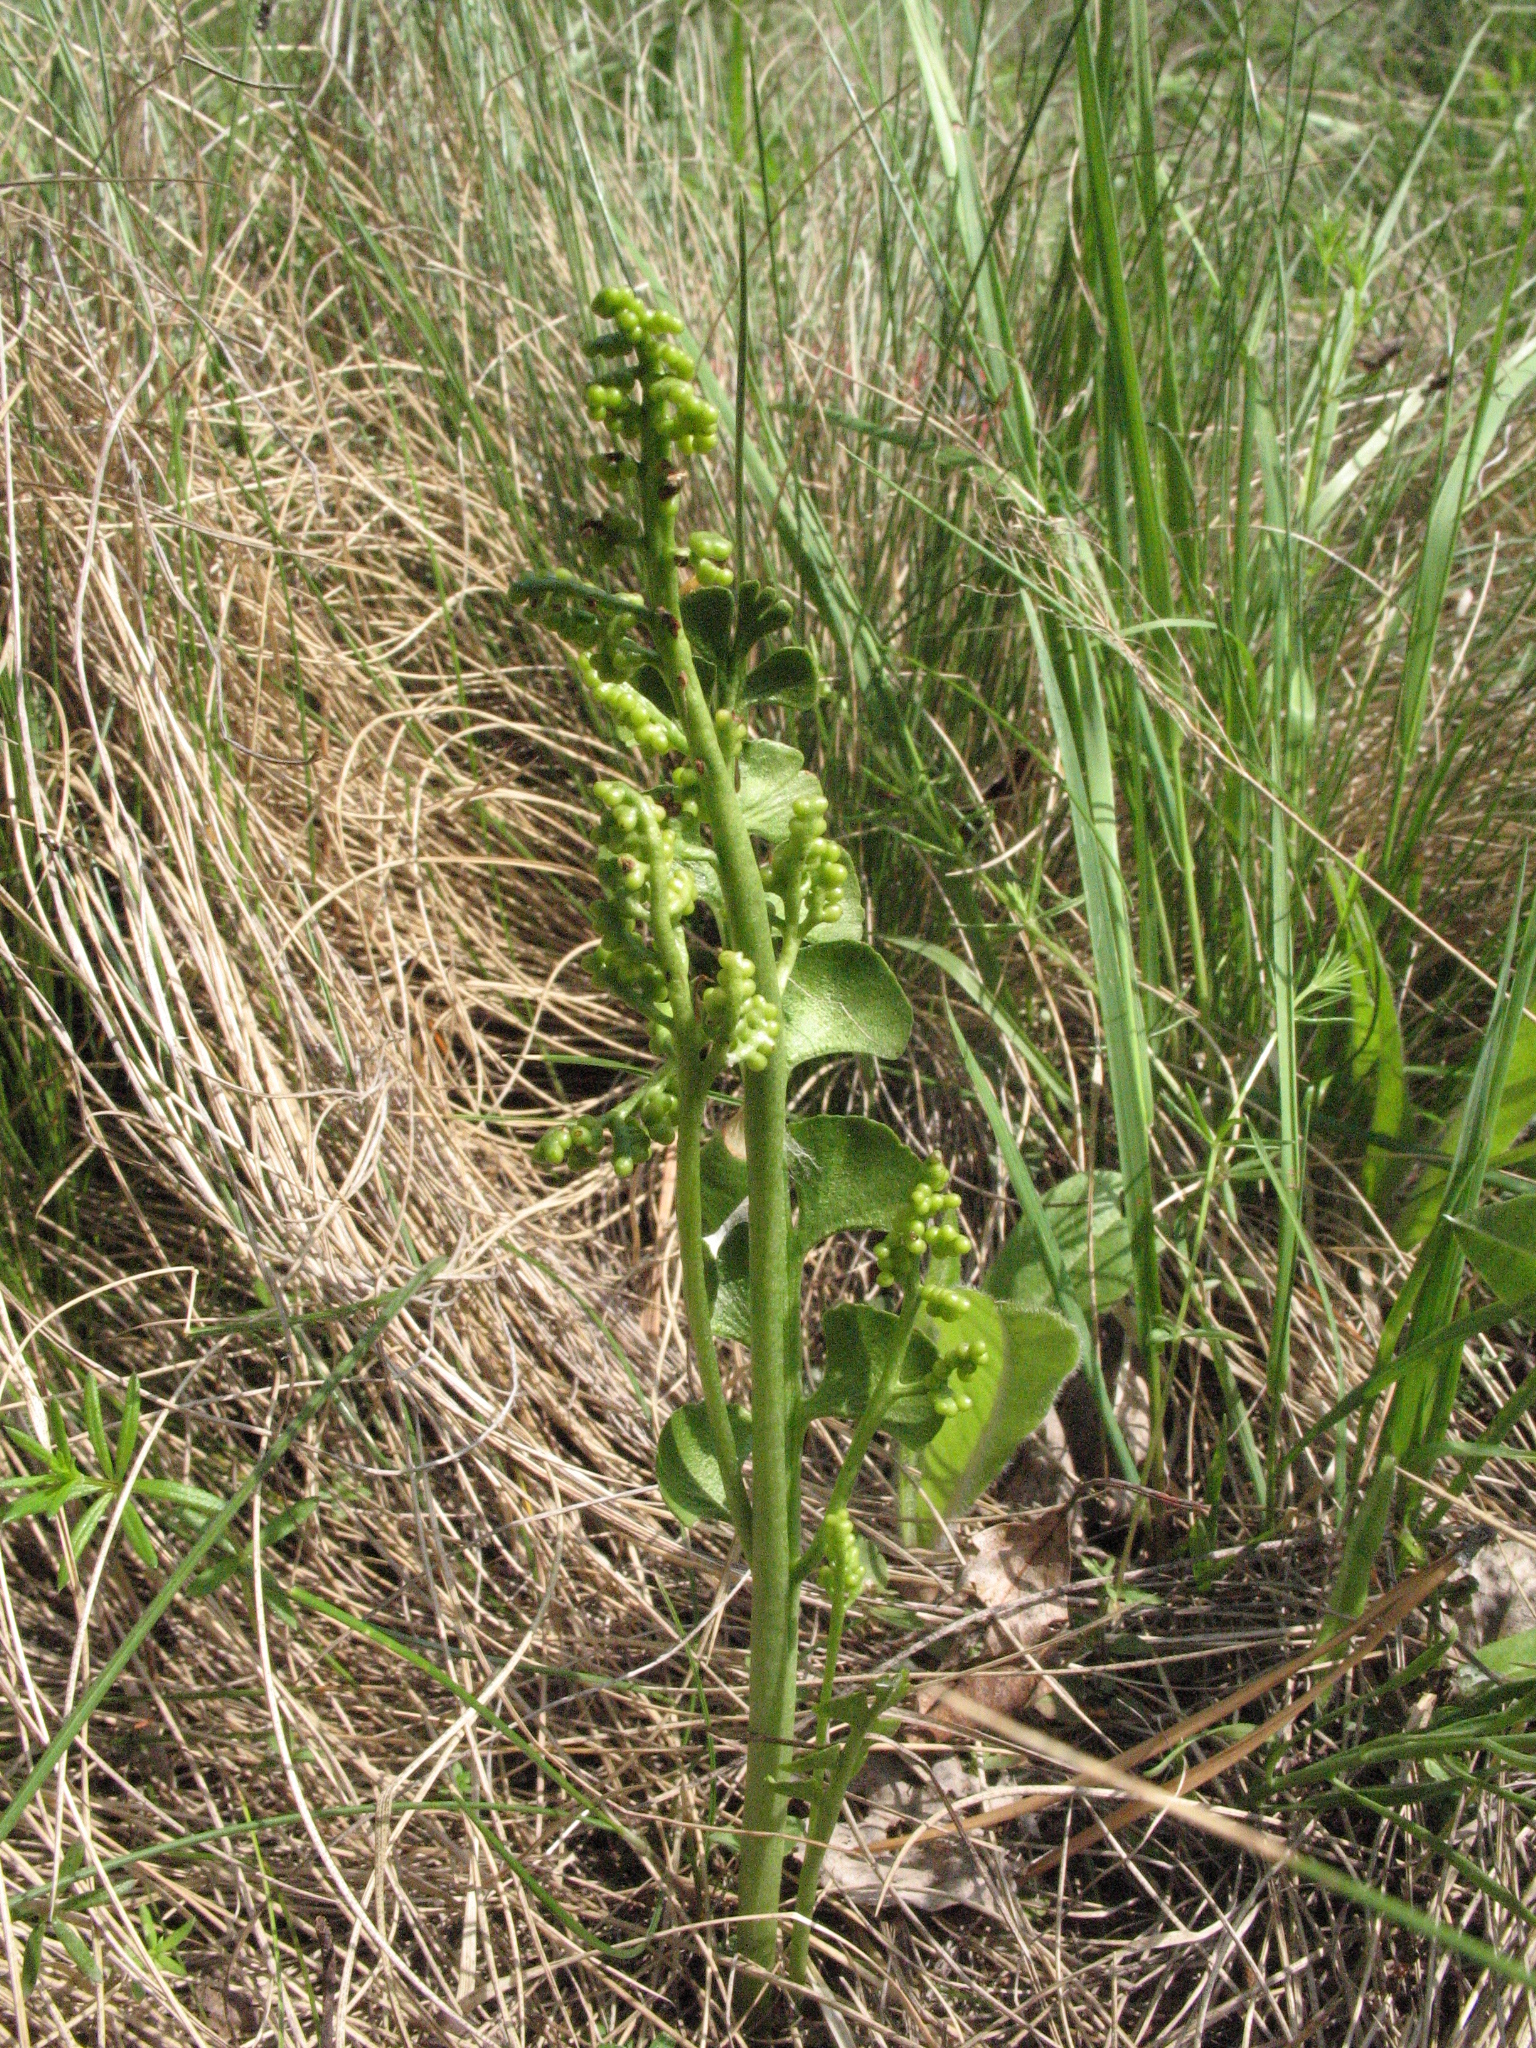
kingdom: Plantae
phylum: Tracheophyta
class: Polypodiopsida
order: Ophioglossales
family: Ophioglossaceae
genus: Botrychium
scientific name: Botrychium lunaria
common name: Moonwort
